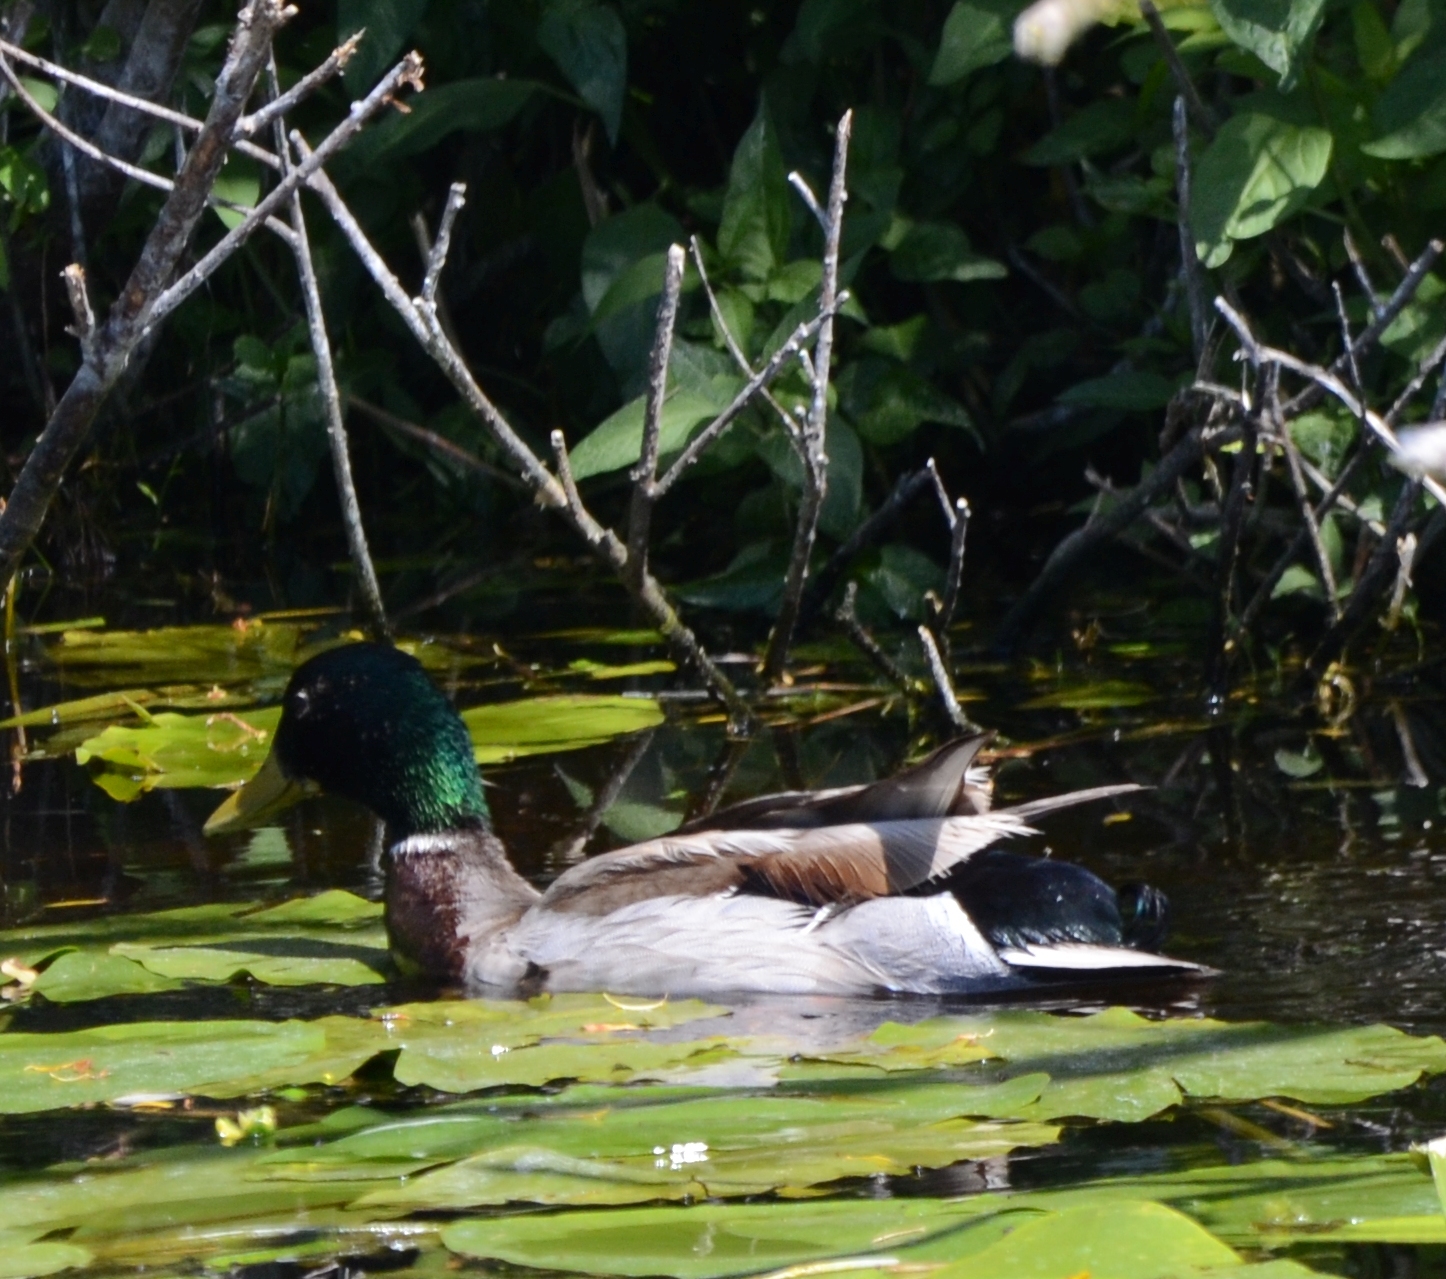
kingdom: Animalia
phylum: Chordata
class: Aves
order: Anseriformes
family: Anatidae
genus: Anas
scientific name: Anas platyrhynchos
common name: Mallard
